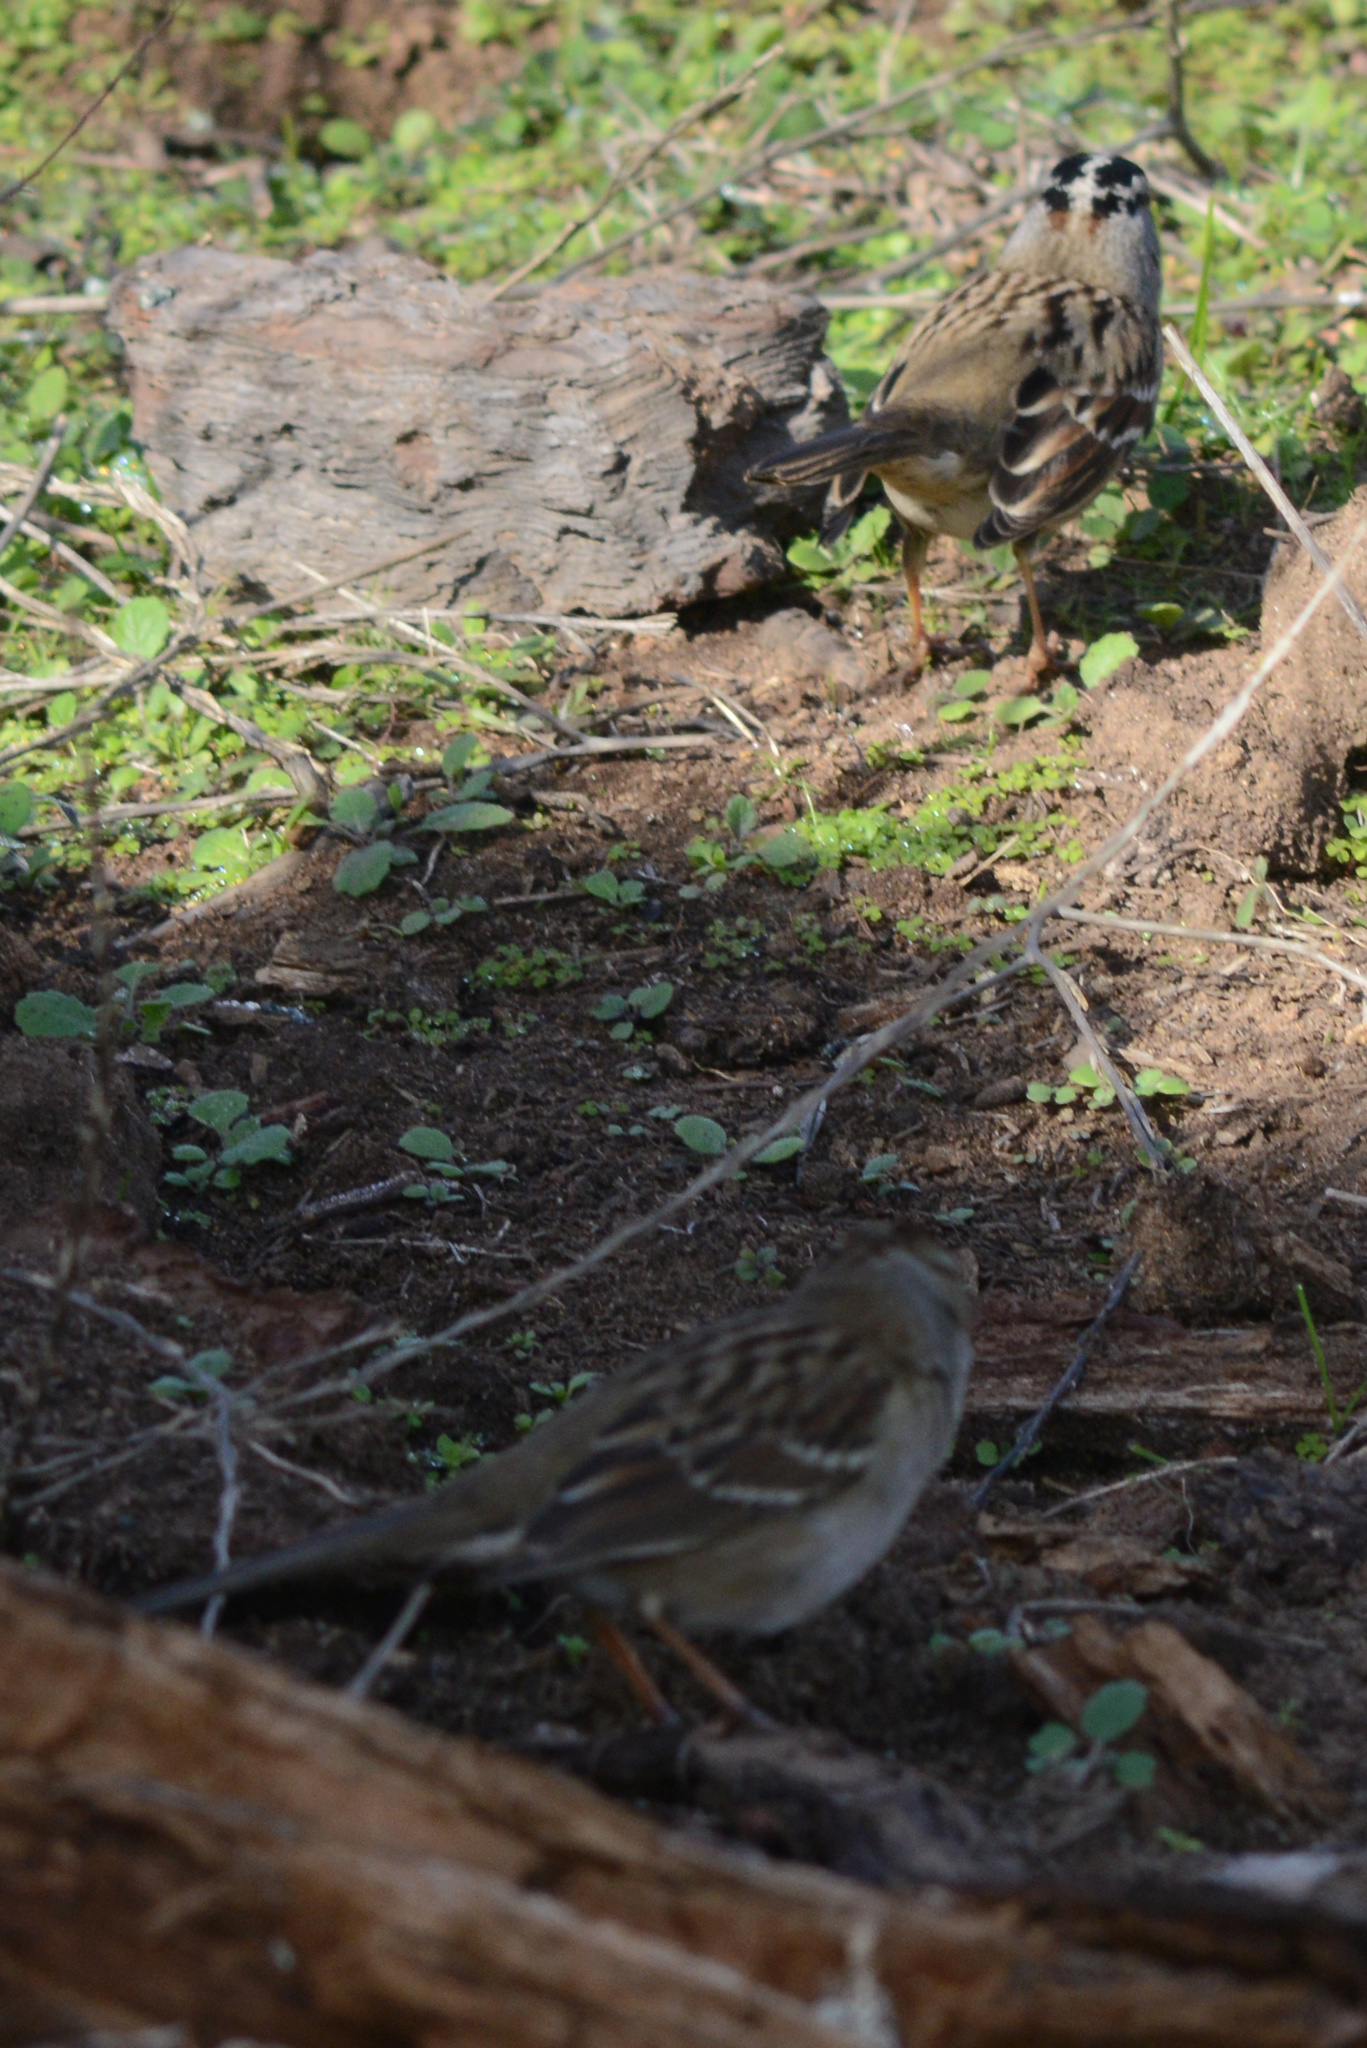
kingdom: Animalia
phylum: Chordata
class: Aves
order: Passeriformes
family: Passerellidae
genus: Zonotrichia
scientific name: Zonotrichia leucophrys
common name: White-crowned sparrow
